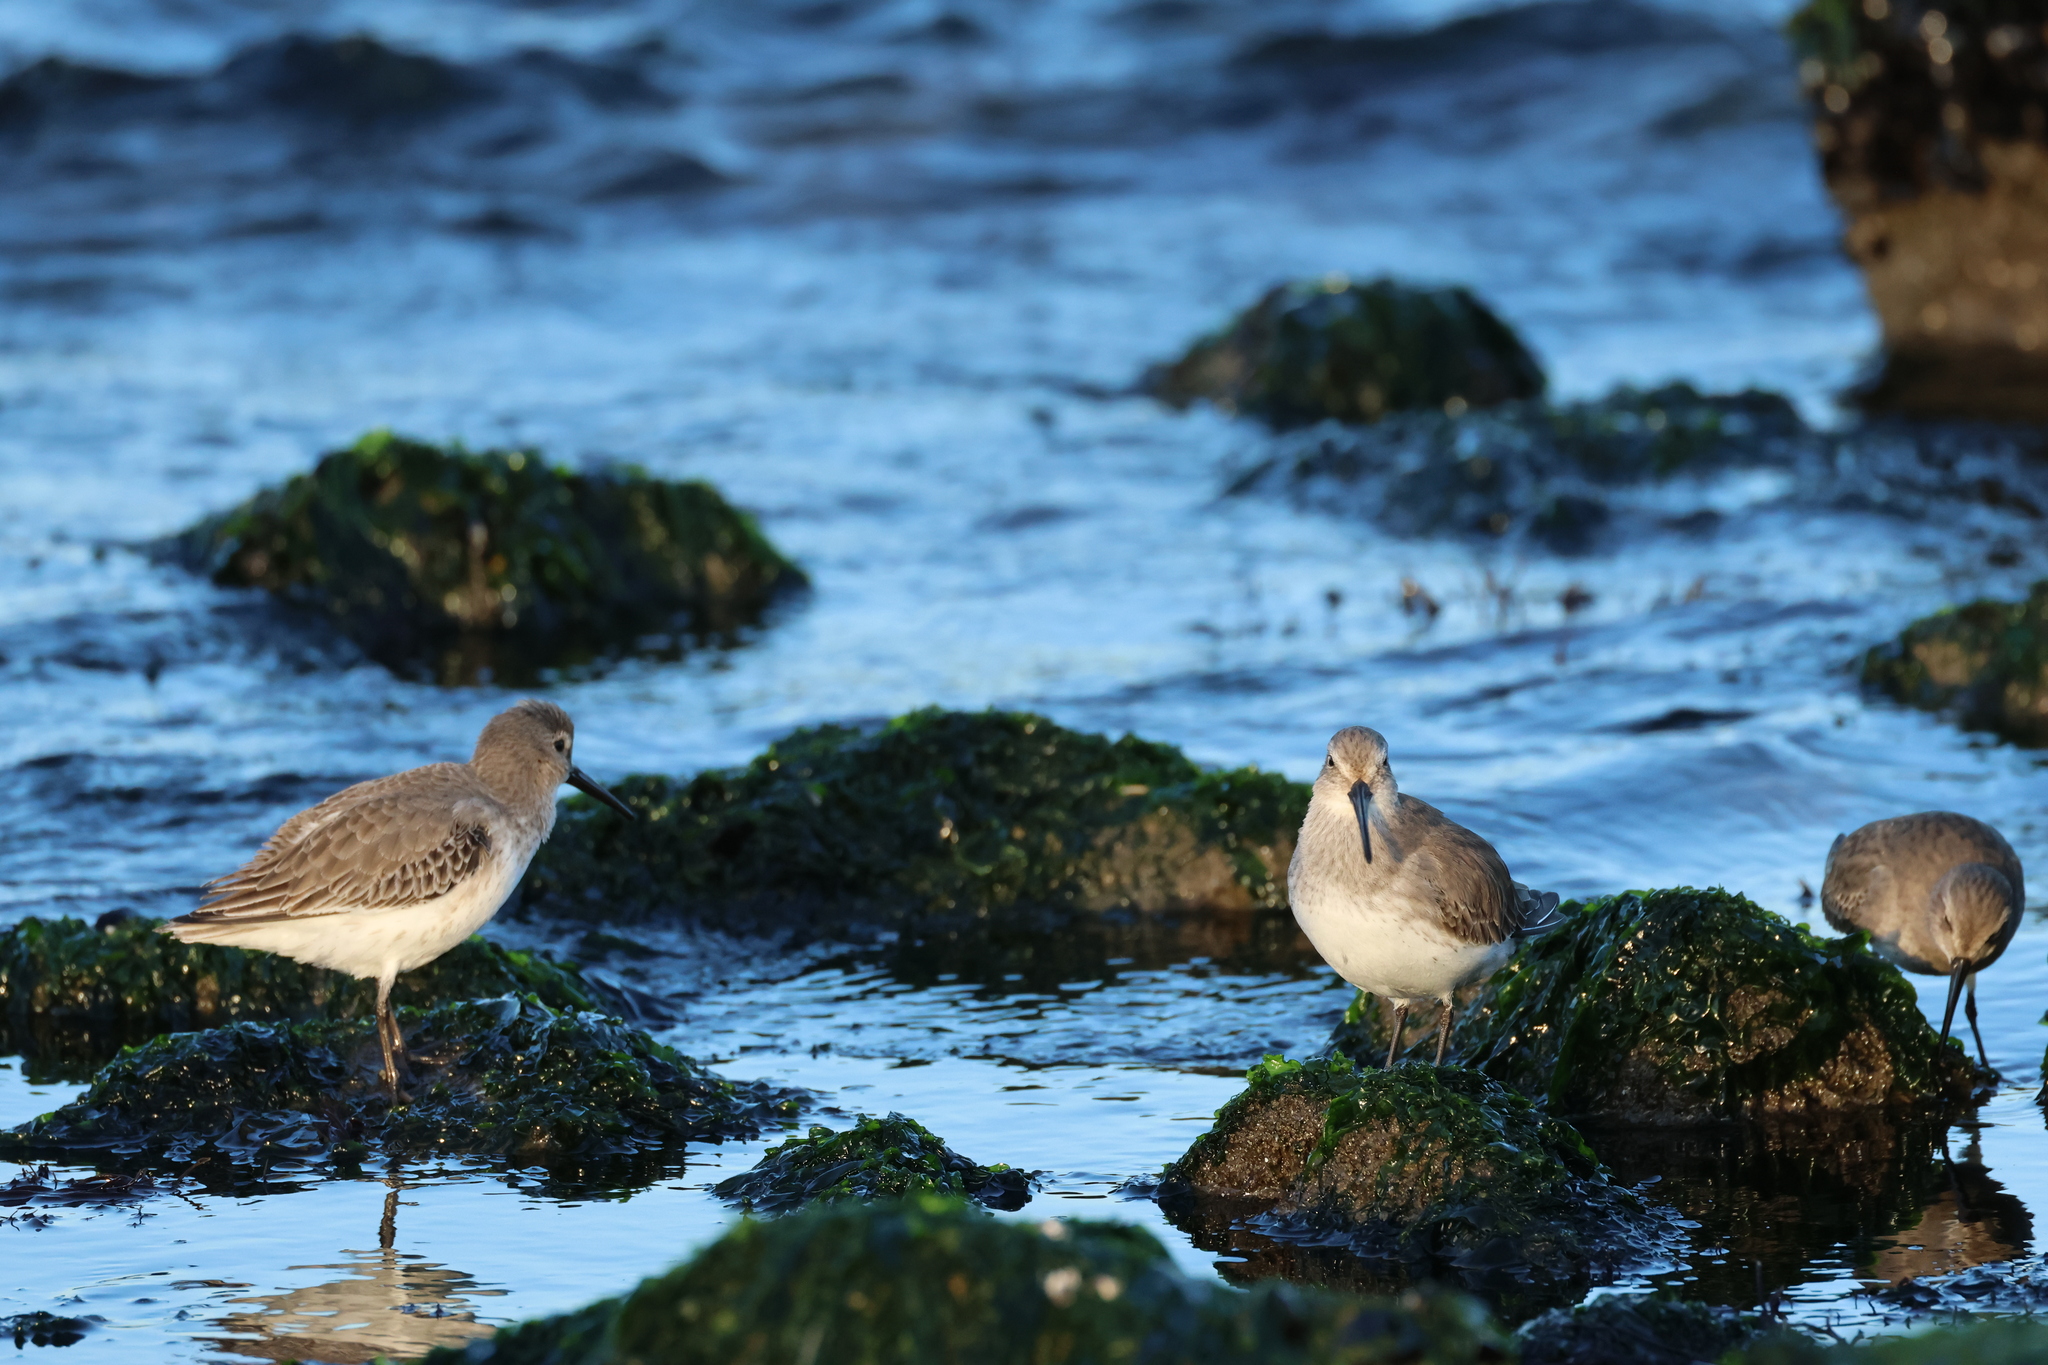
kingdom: Animalia
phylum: Chordata
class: Aves
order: Charadriiformes
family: Scolopacidae
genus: Calidris
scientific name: Calidris alpina
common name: Dunlin
